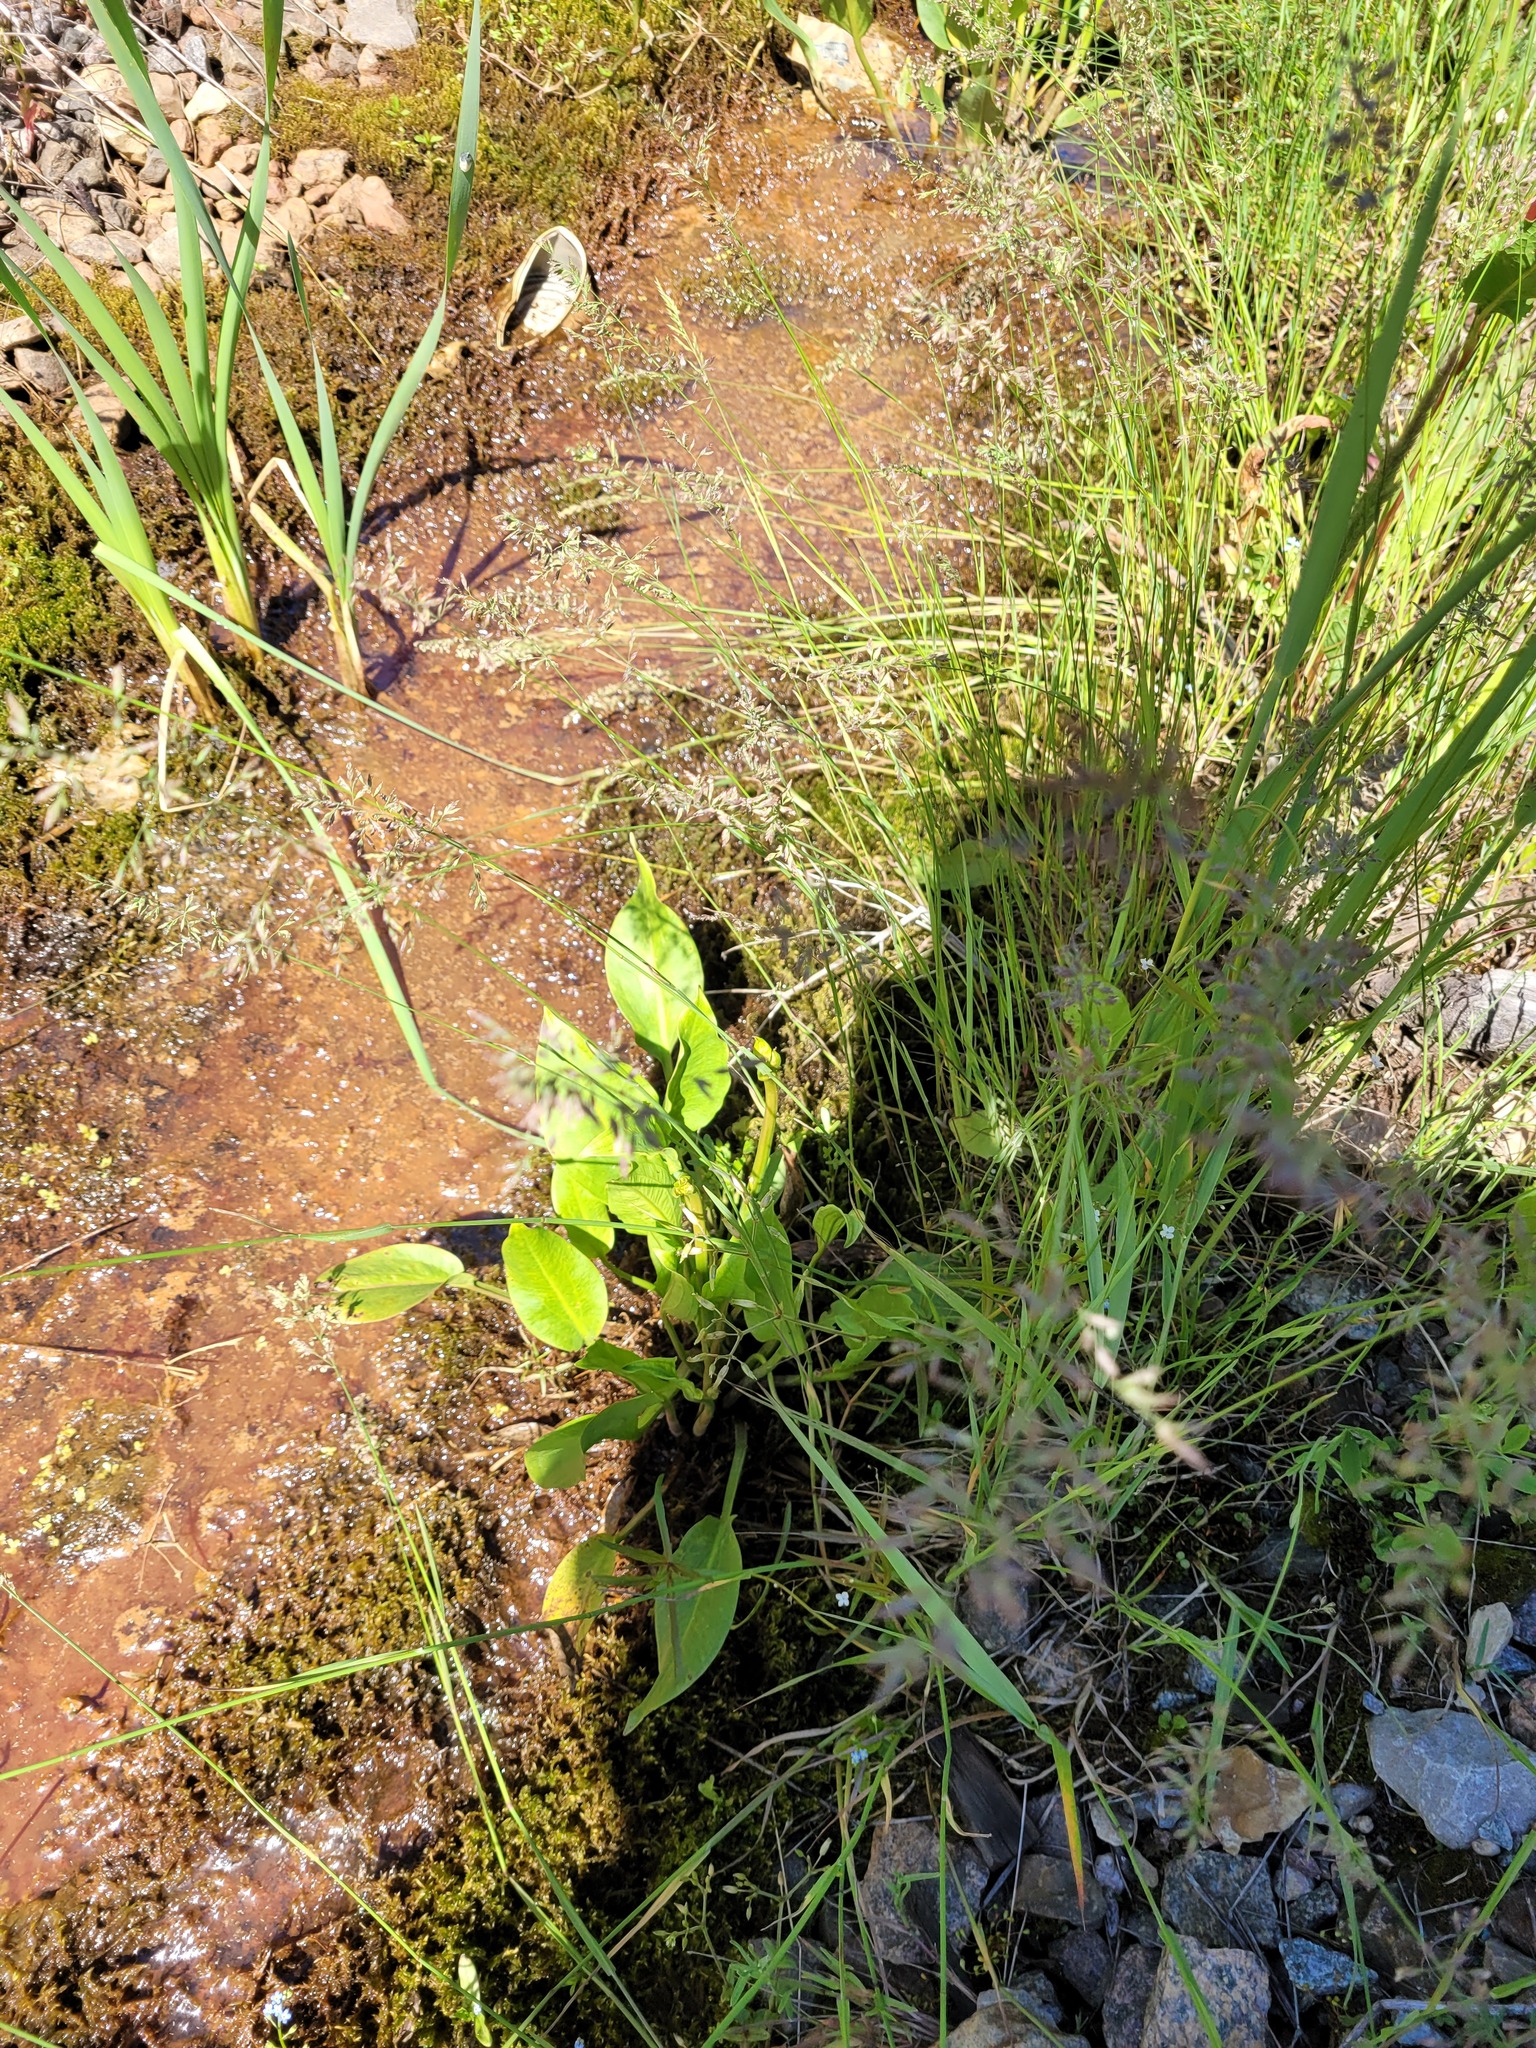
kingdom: Plantae
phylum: Tracheophyta
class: Liliopsida
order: Alismatales
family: Alismataceae
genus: Alisma
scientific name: Alisma plantago-aquatica
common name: Water-plantain
